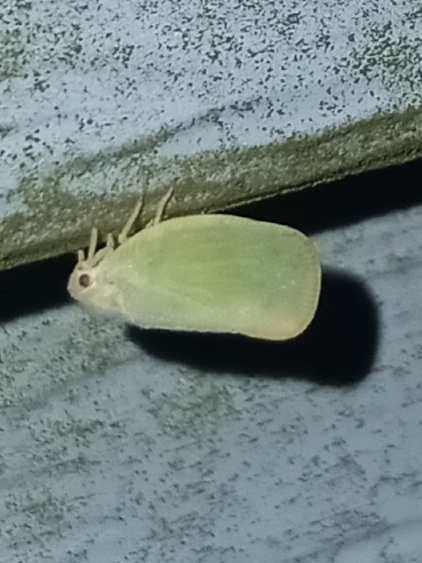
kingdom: Animalia
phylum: Arthropoda
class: Insecta
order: Hemiptera
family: Flatidae
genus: Ormenoides
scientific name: Ormenoides venusta
